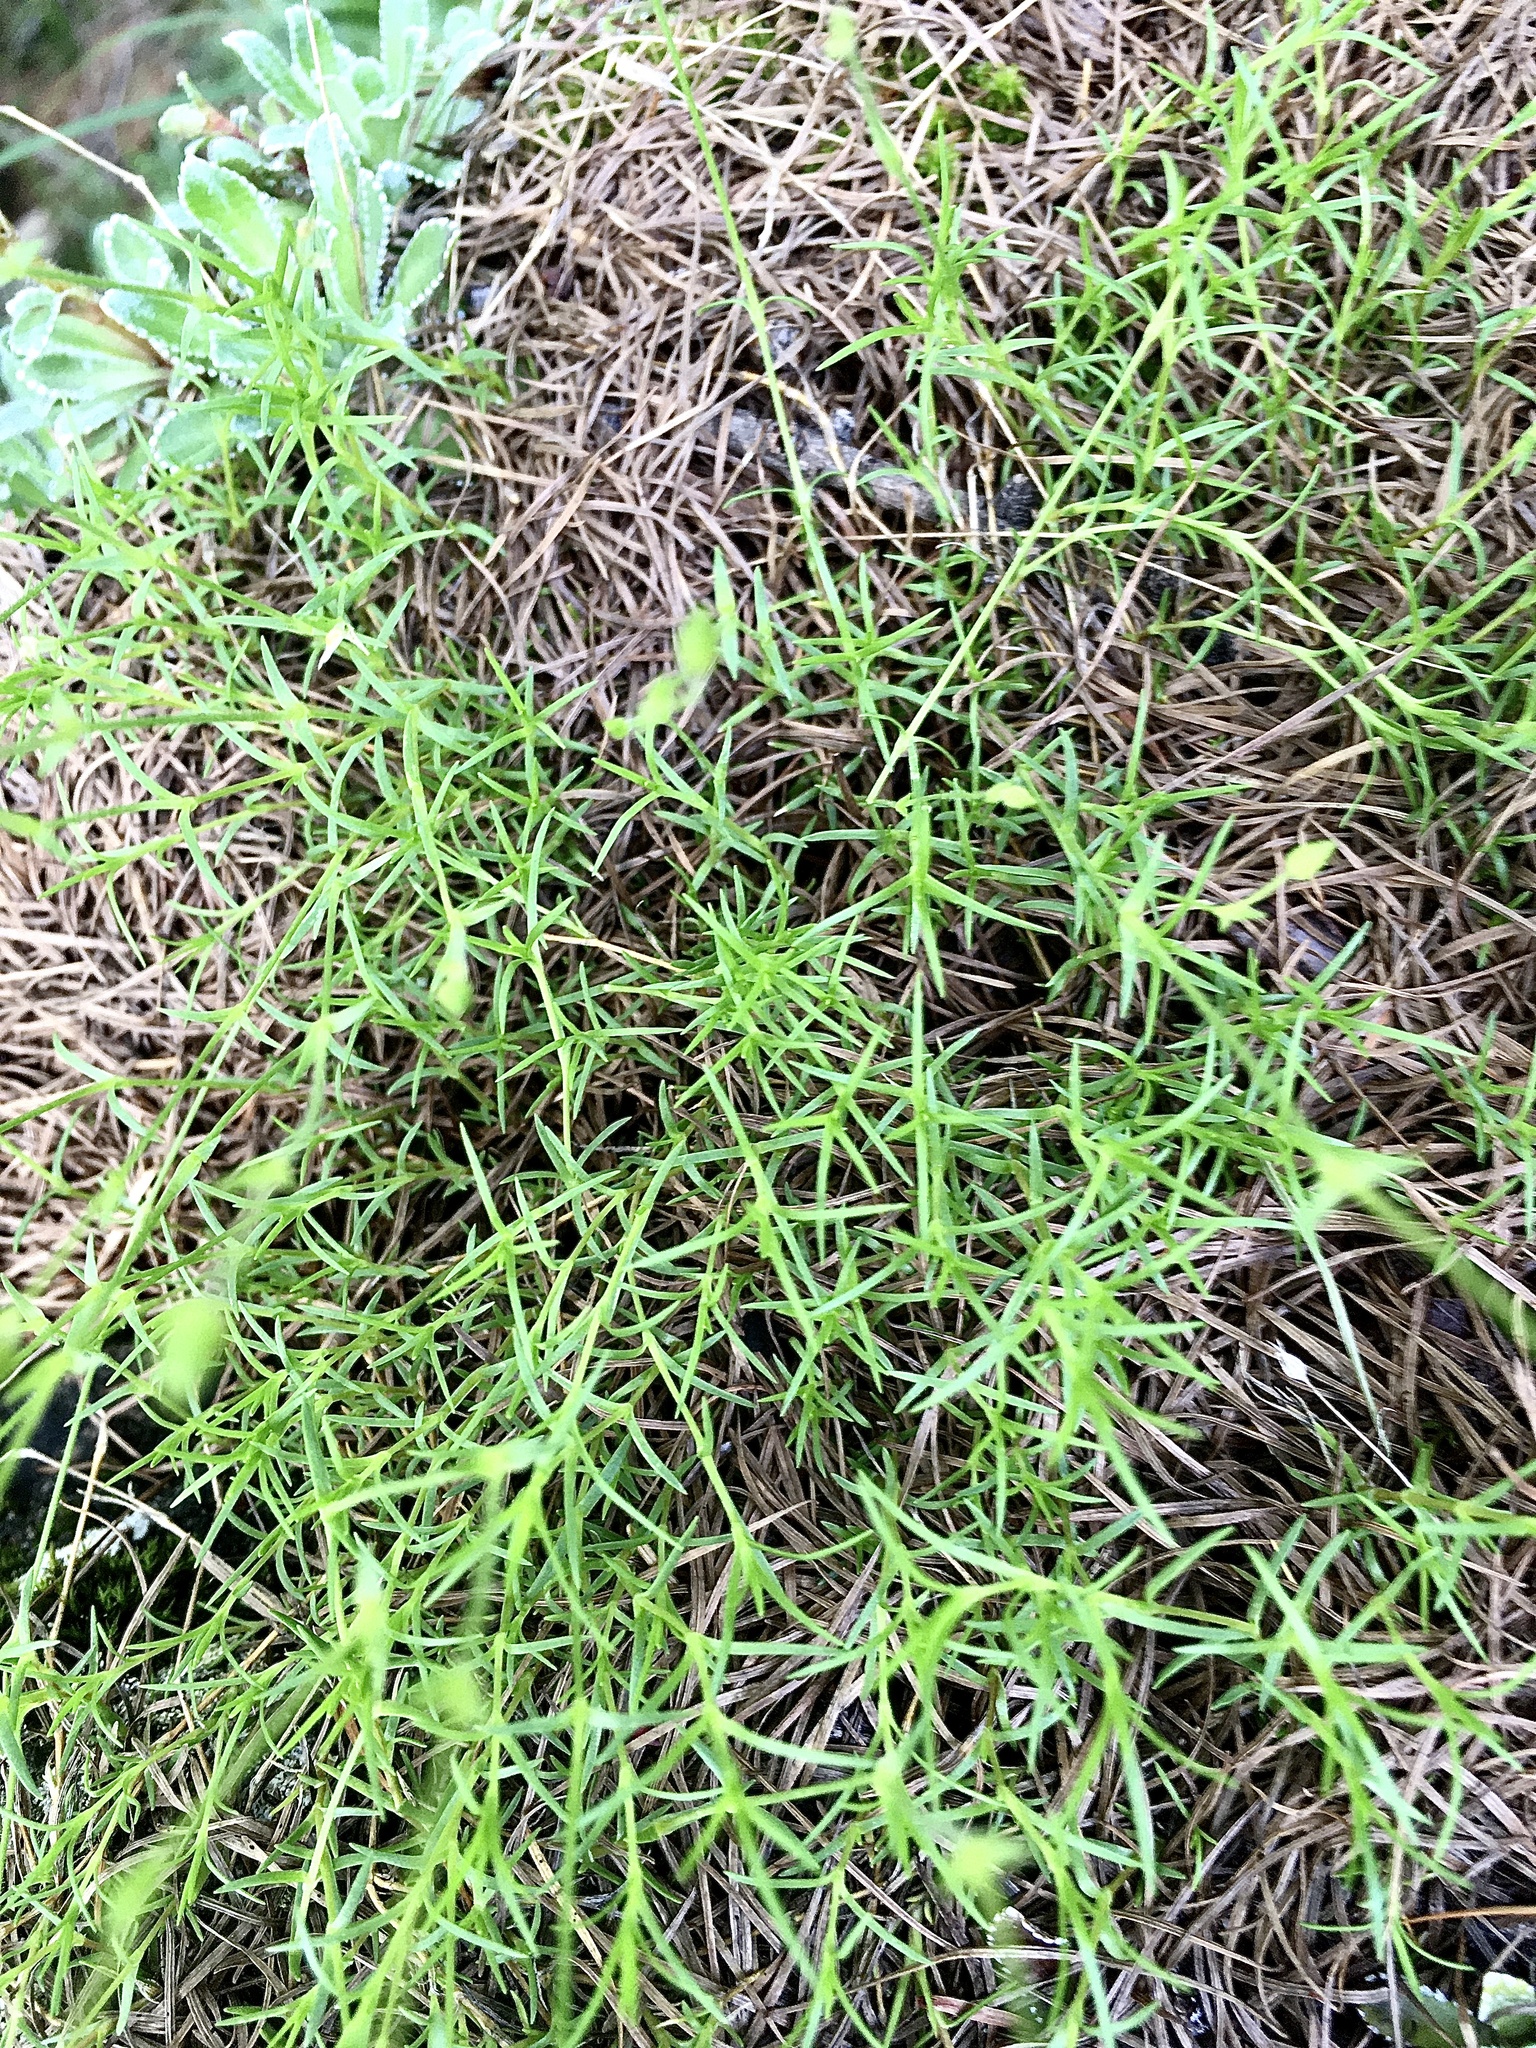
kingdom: Plantae
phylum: Tracheophyta
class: Magnoliopsida
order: Caryophyllales
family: Caryophyllaceae
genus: Moehringia
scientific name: Moehringia muscosa
